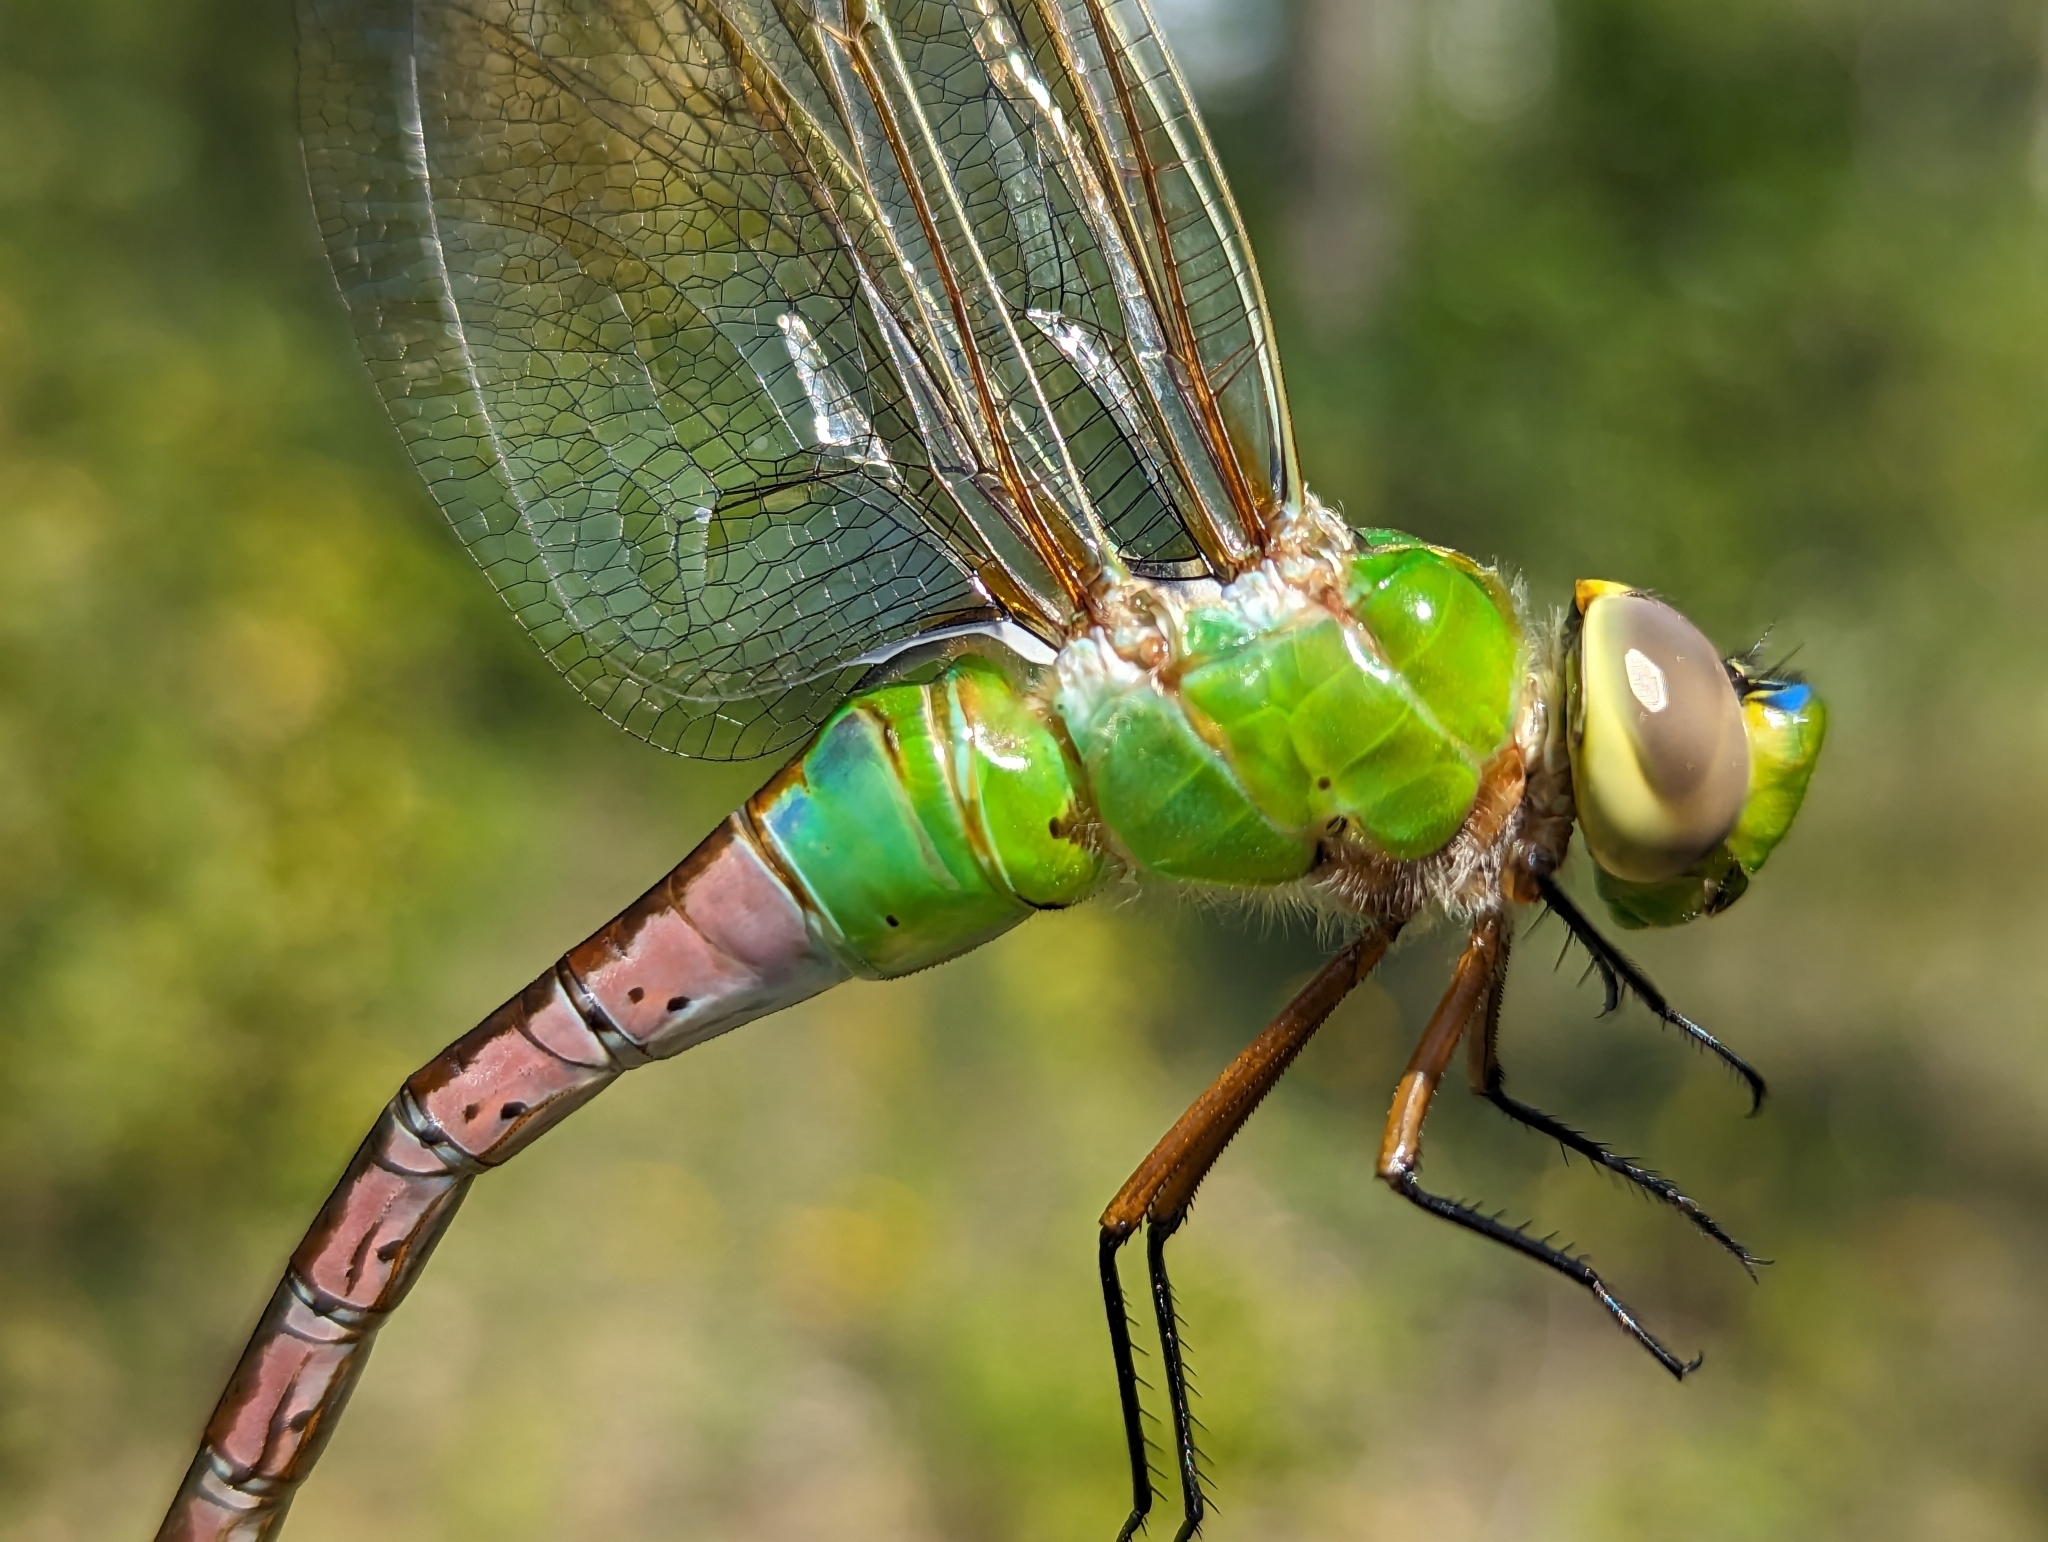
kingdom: Animalia
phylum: Arthropoda
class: Insecta
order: Odonata
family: Aeshnidae
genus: Anax
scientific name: Anax junius
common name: Common green darner
